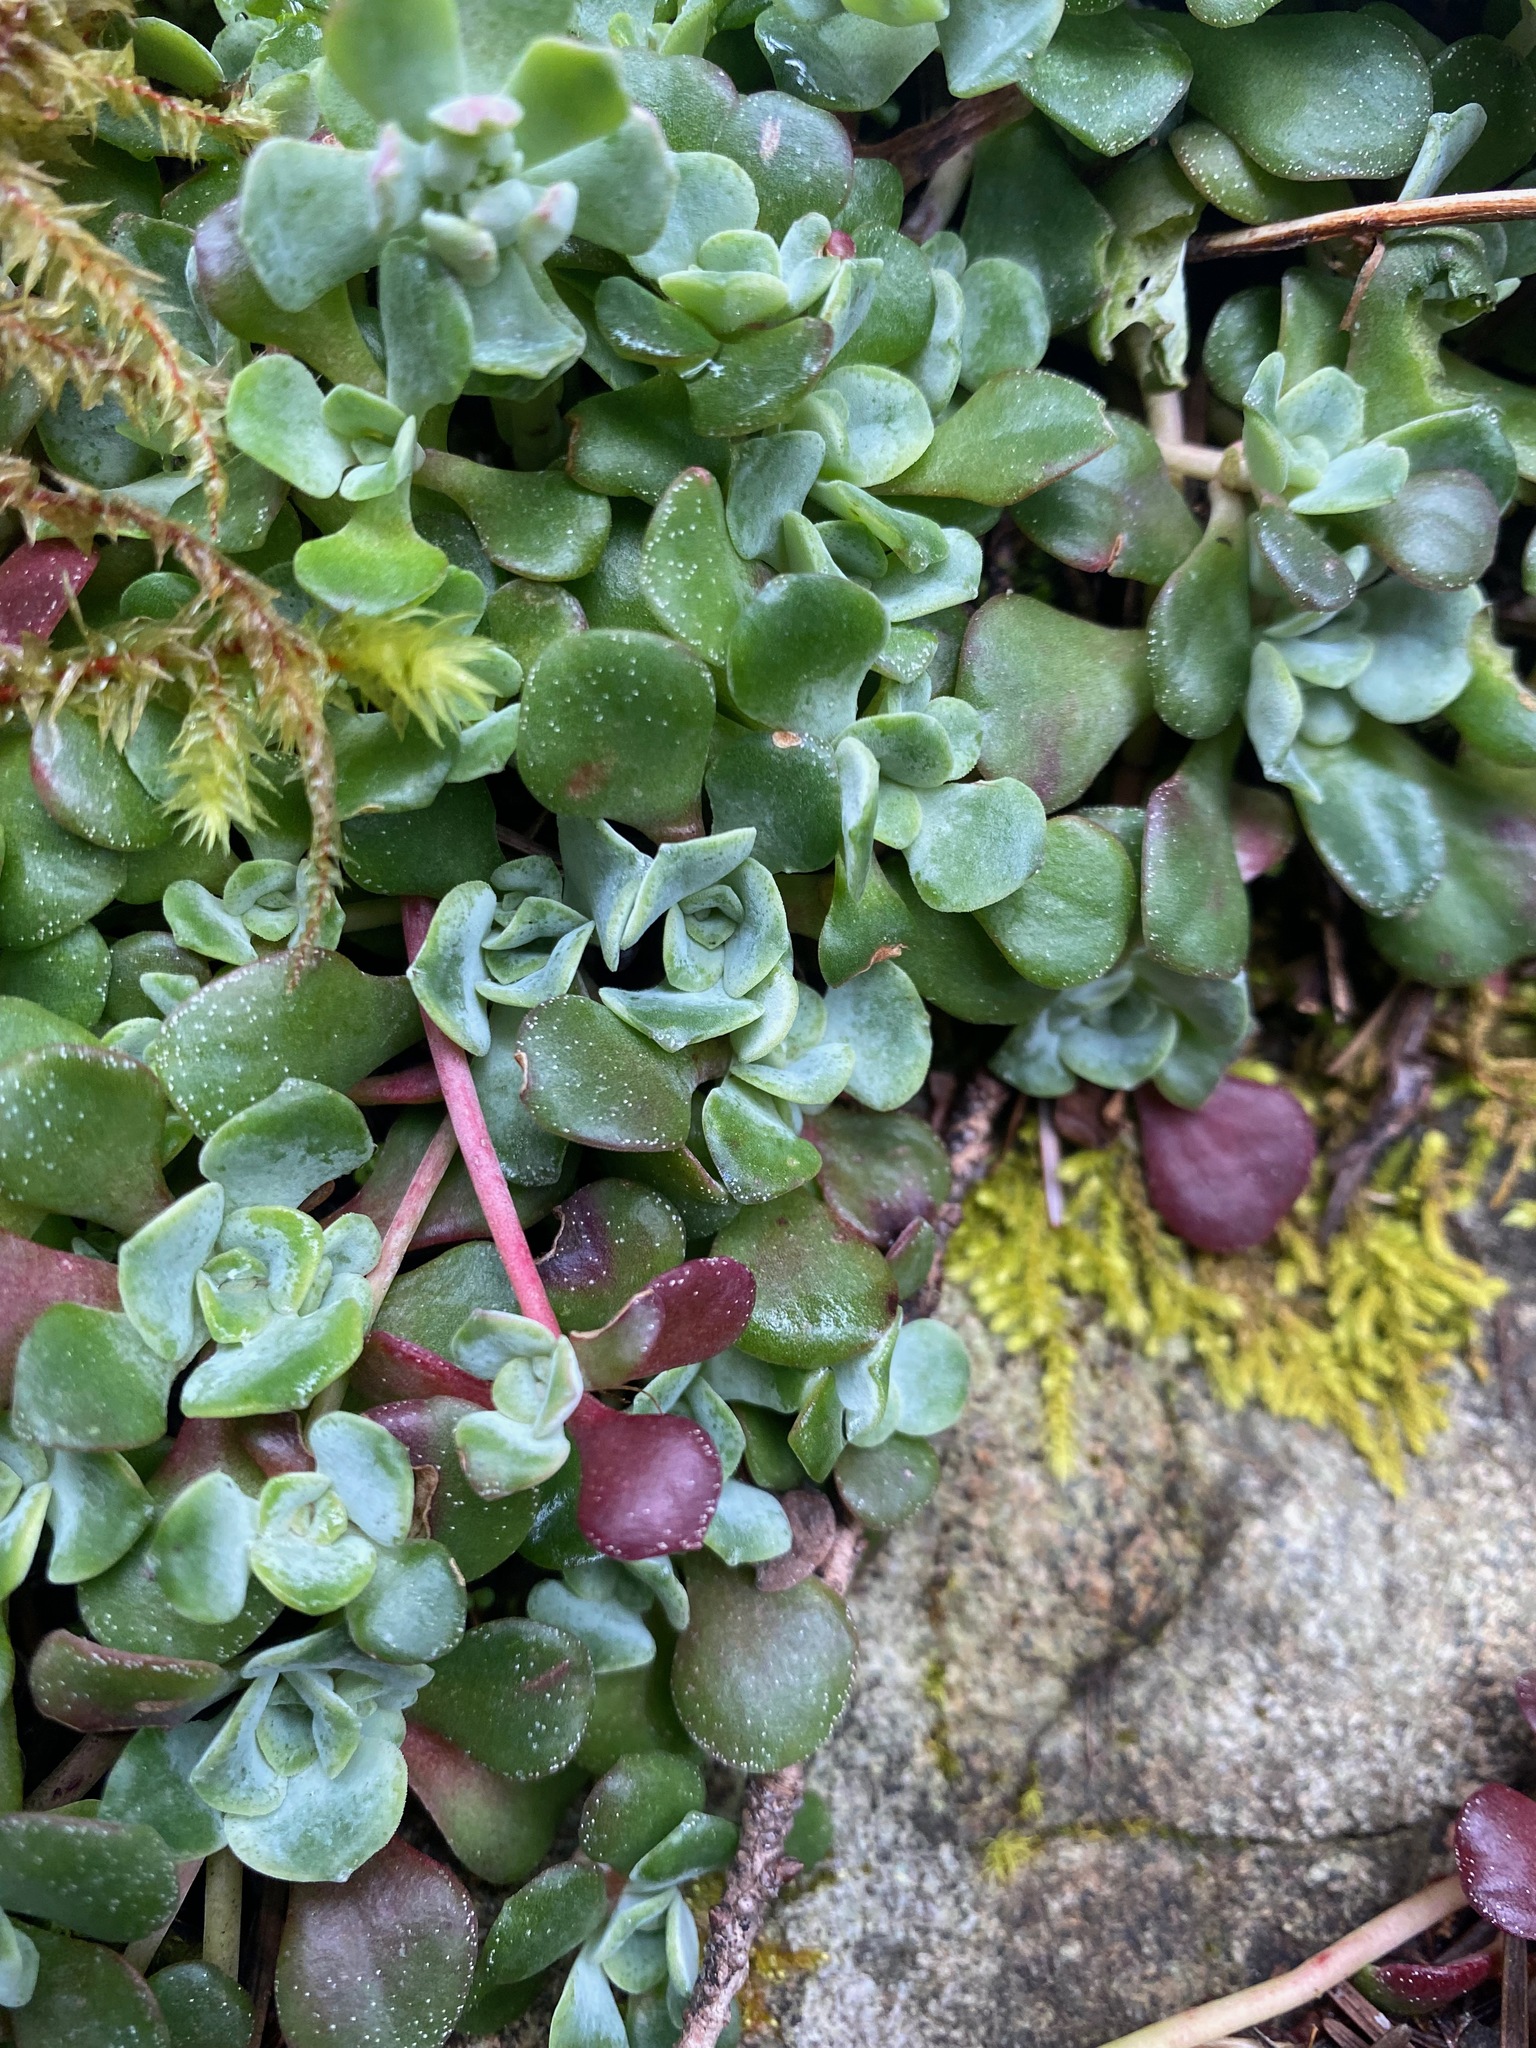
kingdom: Plantae
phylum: Tracheophyta
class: Magnoliopsida
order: Saxifragales
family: Crassulaceae
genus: Sedum
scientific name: Sedum spathulifolium
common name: Colorado stonecrop
